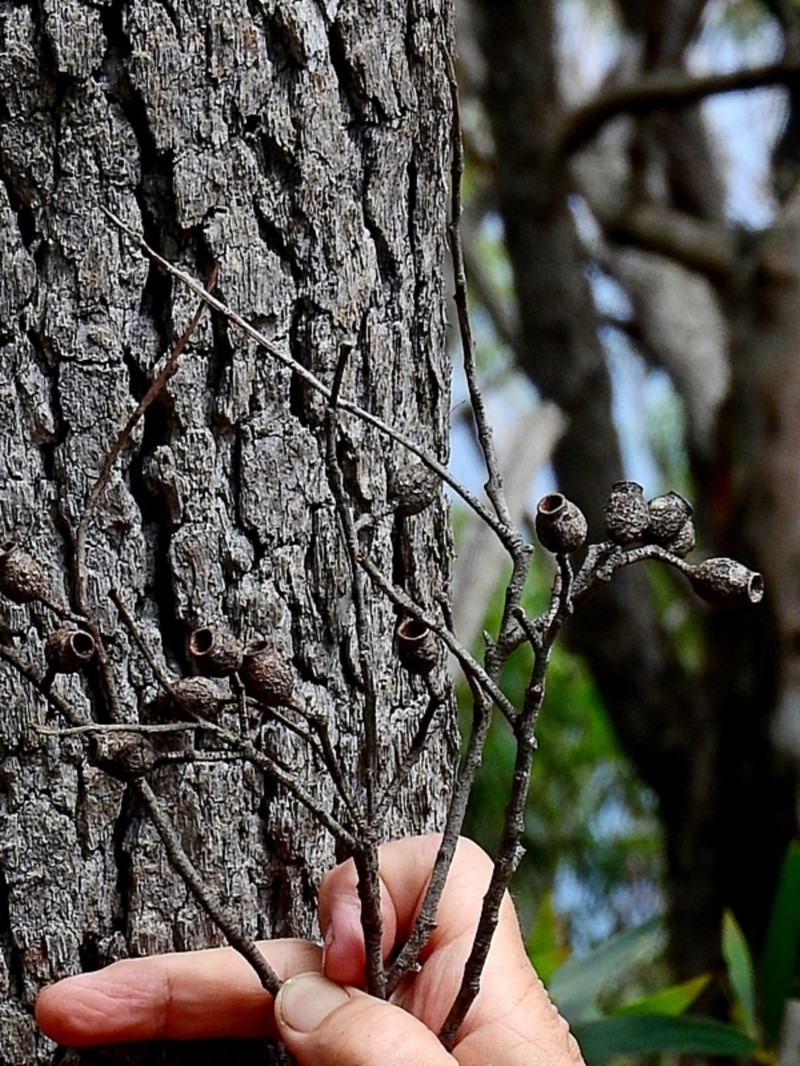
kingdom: Plantae
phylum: Tracheophyta
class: Magnoliopsida
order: Myrtales
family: Myrtaceae
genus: Corymbia
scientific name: Corymbia gummifera
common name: Red bloodwood
